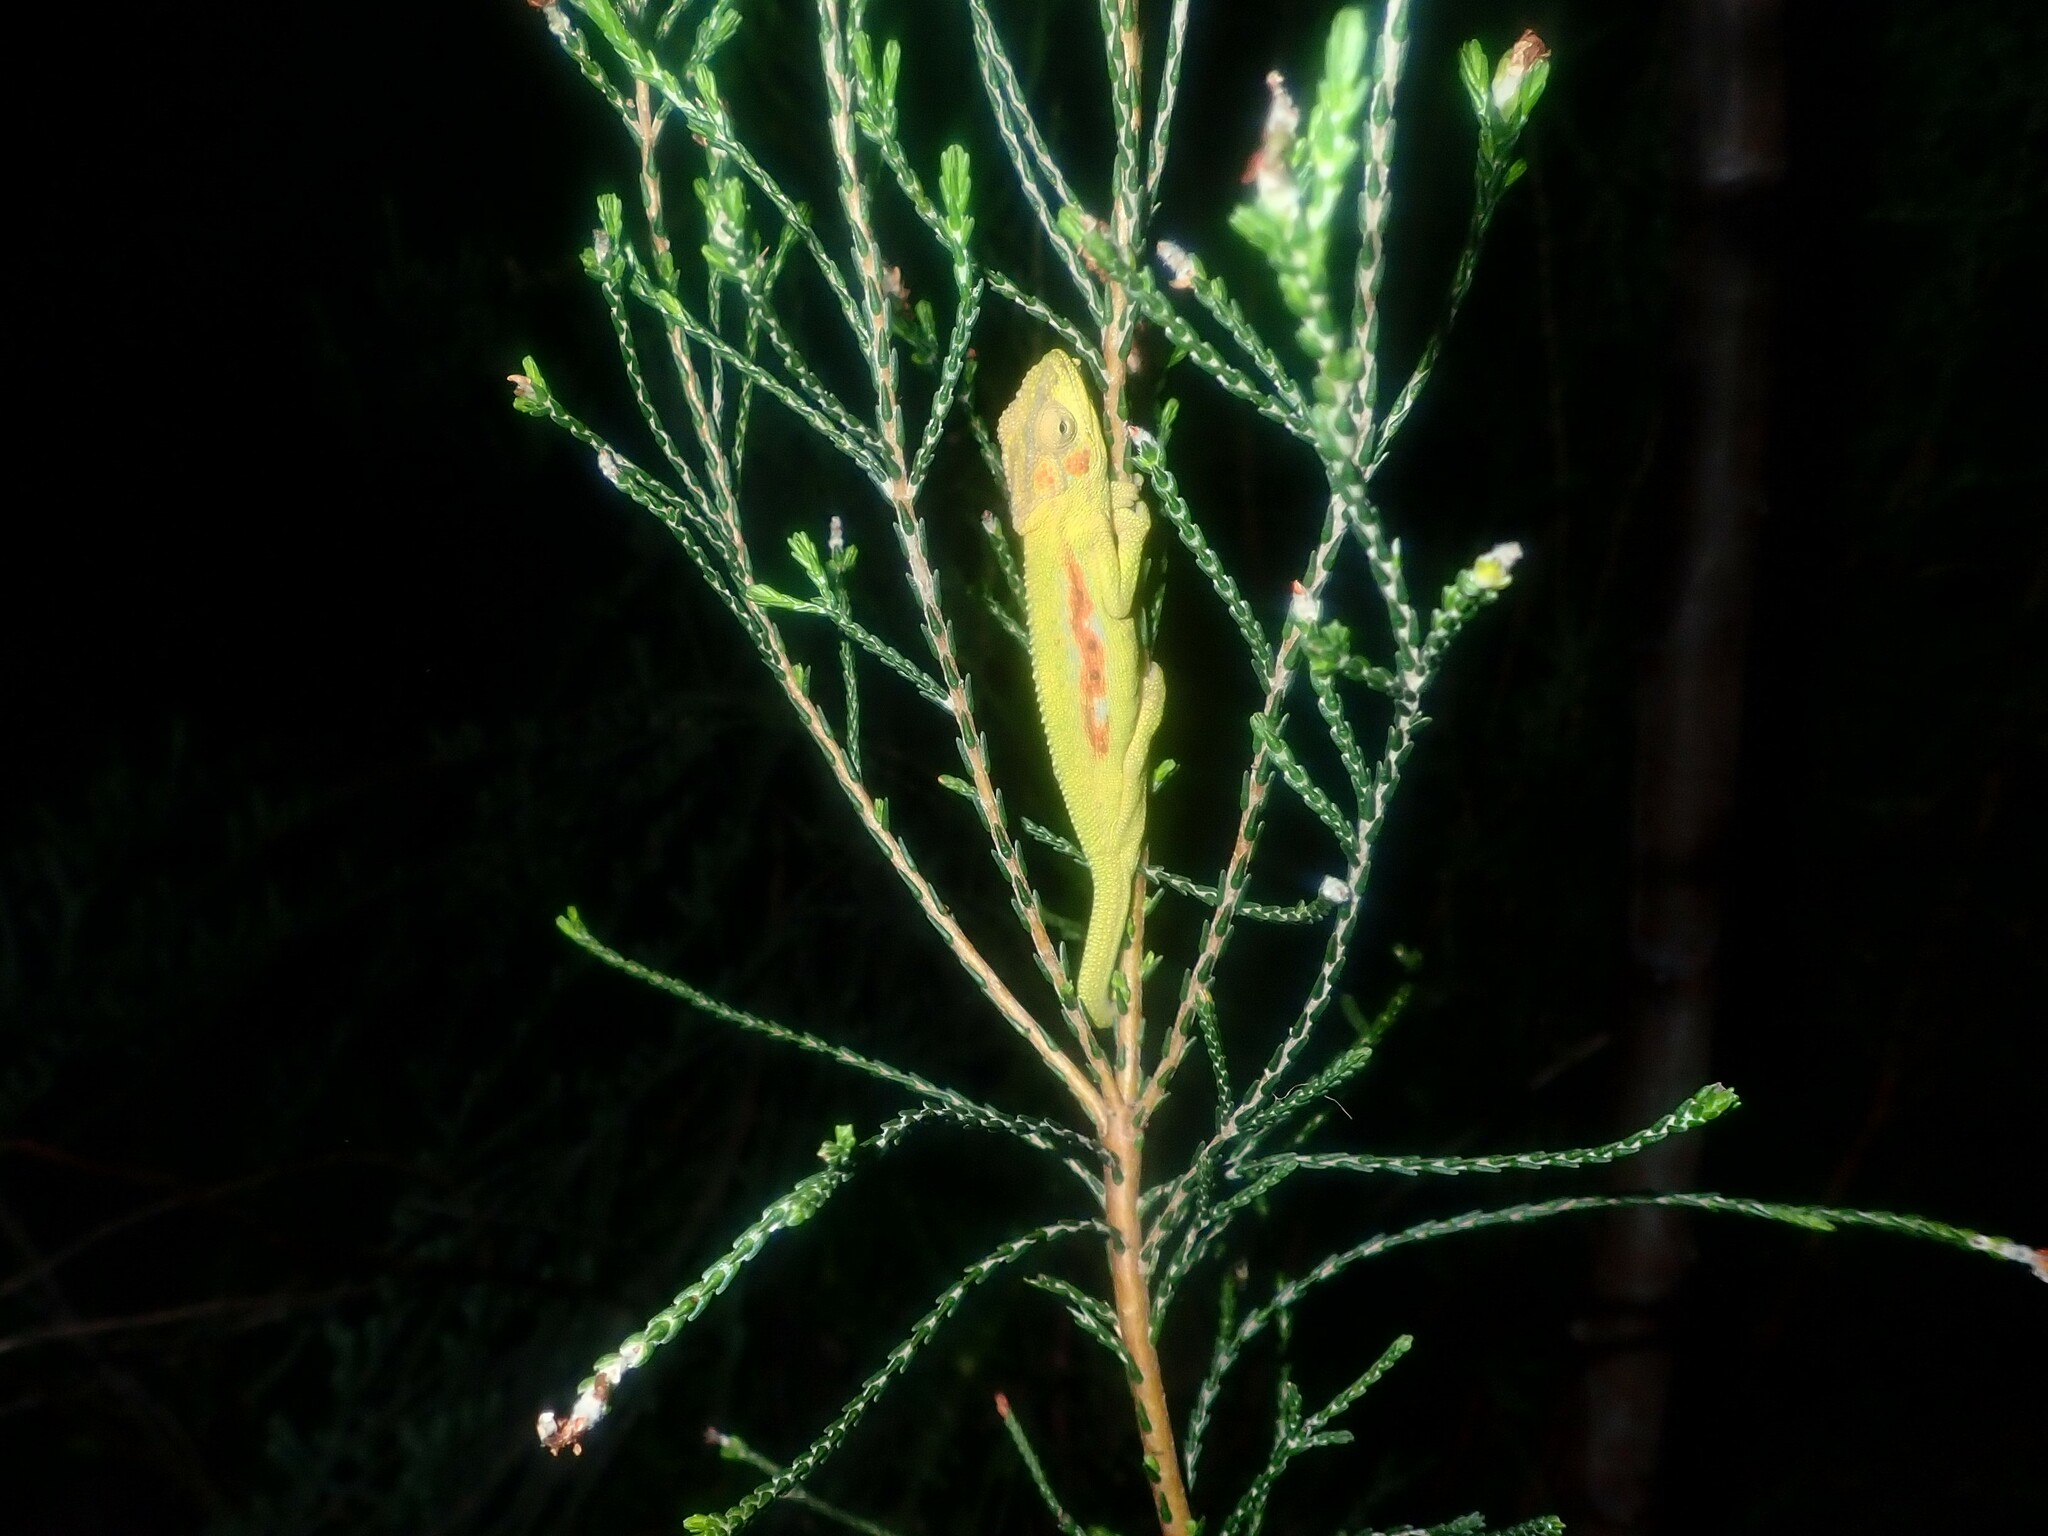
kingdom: Animalia
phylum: Chordata
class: Squamata
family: Chamaeleonidae
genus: Bradypodion
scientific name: Bradypodion pumilum
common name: Cape dwarf chameleon
